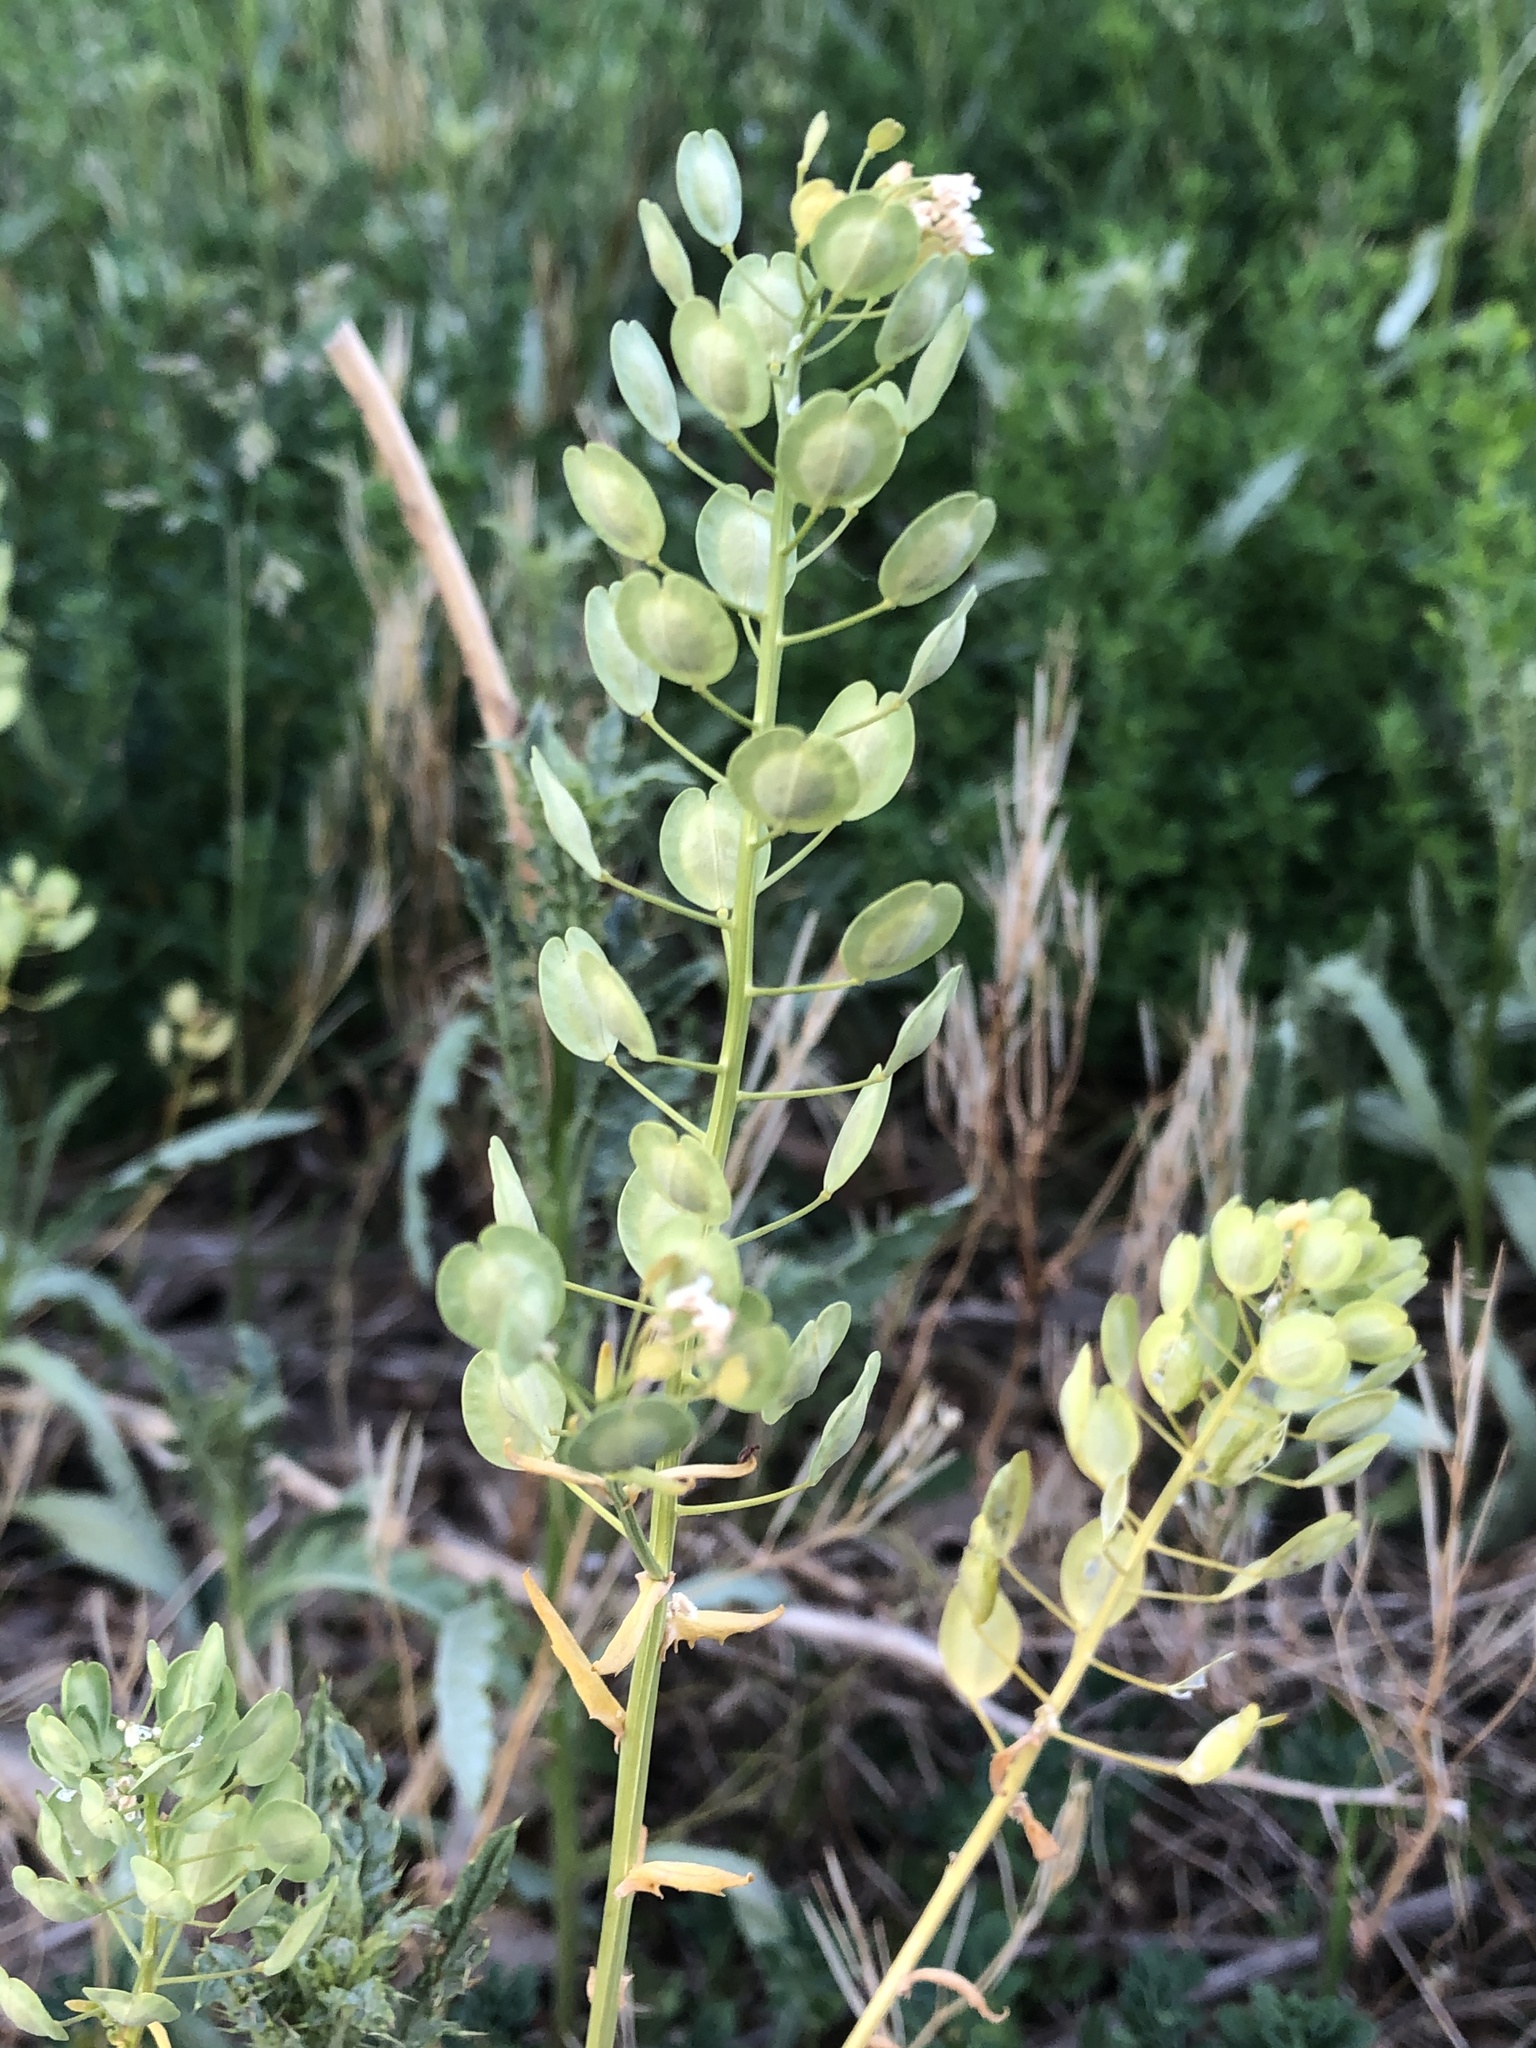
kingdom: Plantae
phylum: Tracheophyta
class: Magnoliopsida
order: Brassicales
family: Brassicaceae
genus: Thlaspi
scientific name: Thlaspi arvense
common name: Field pennycress
